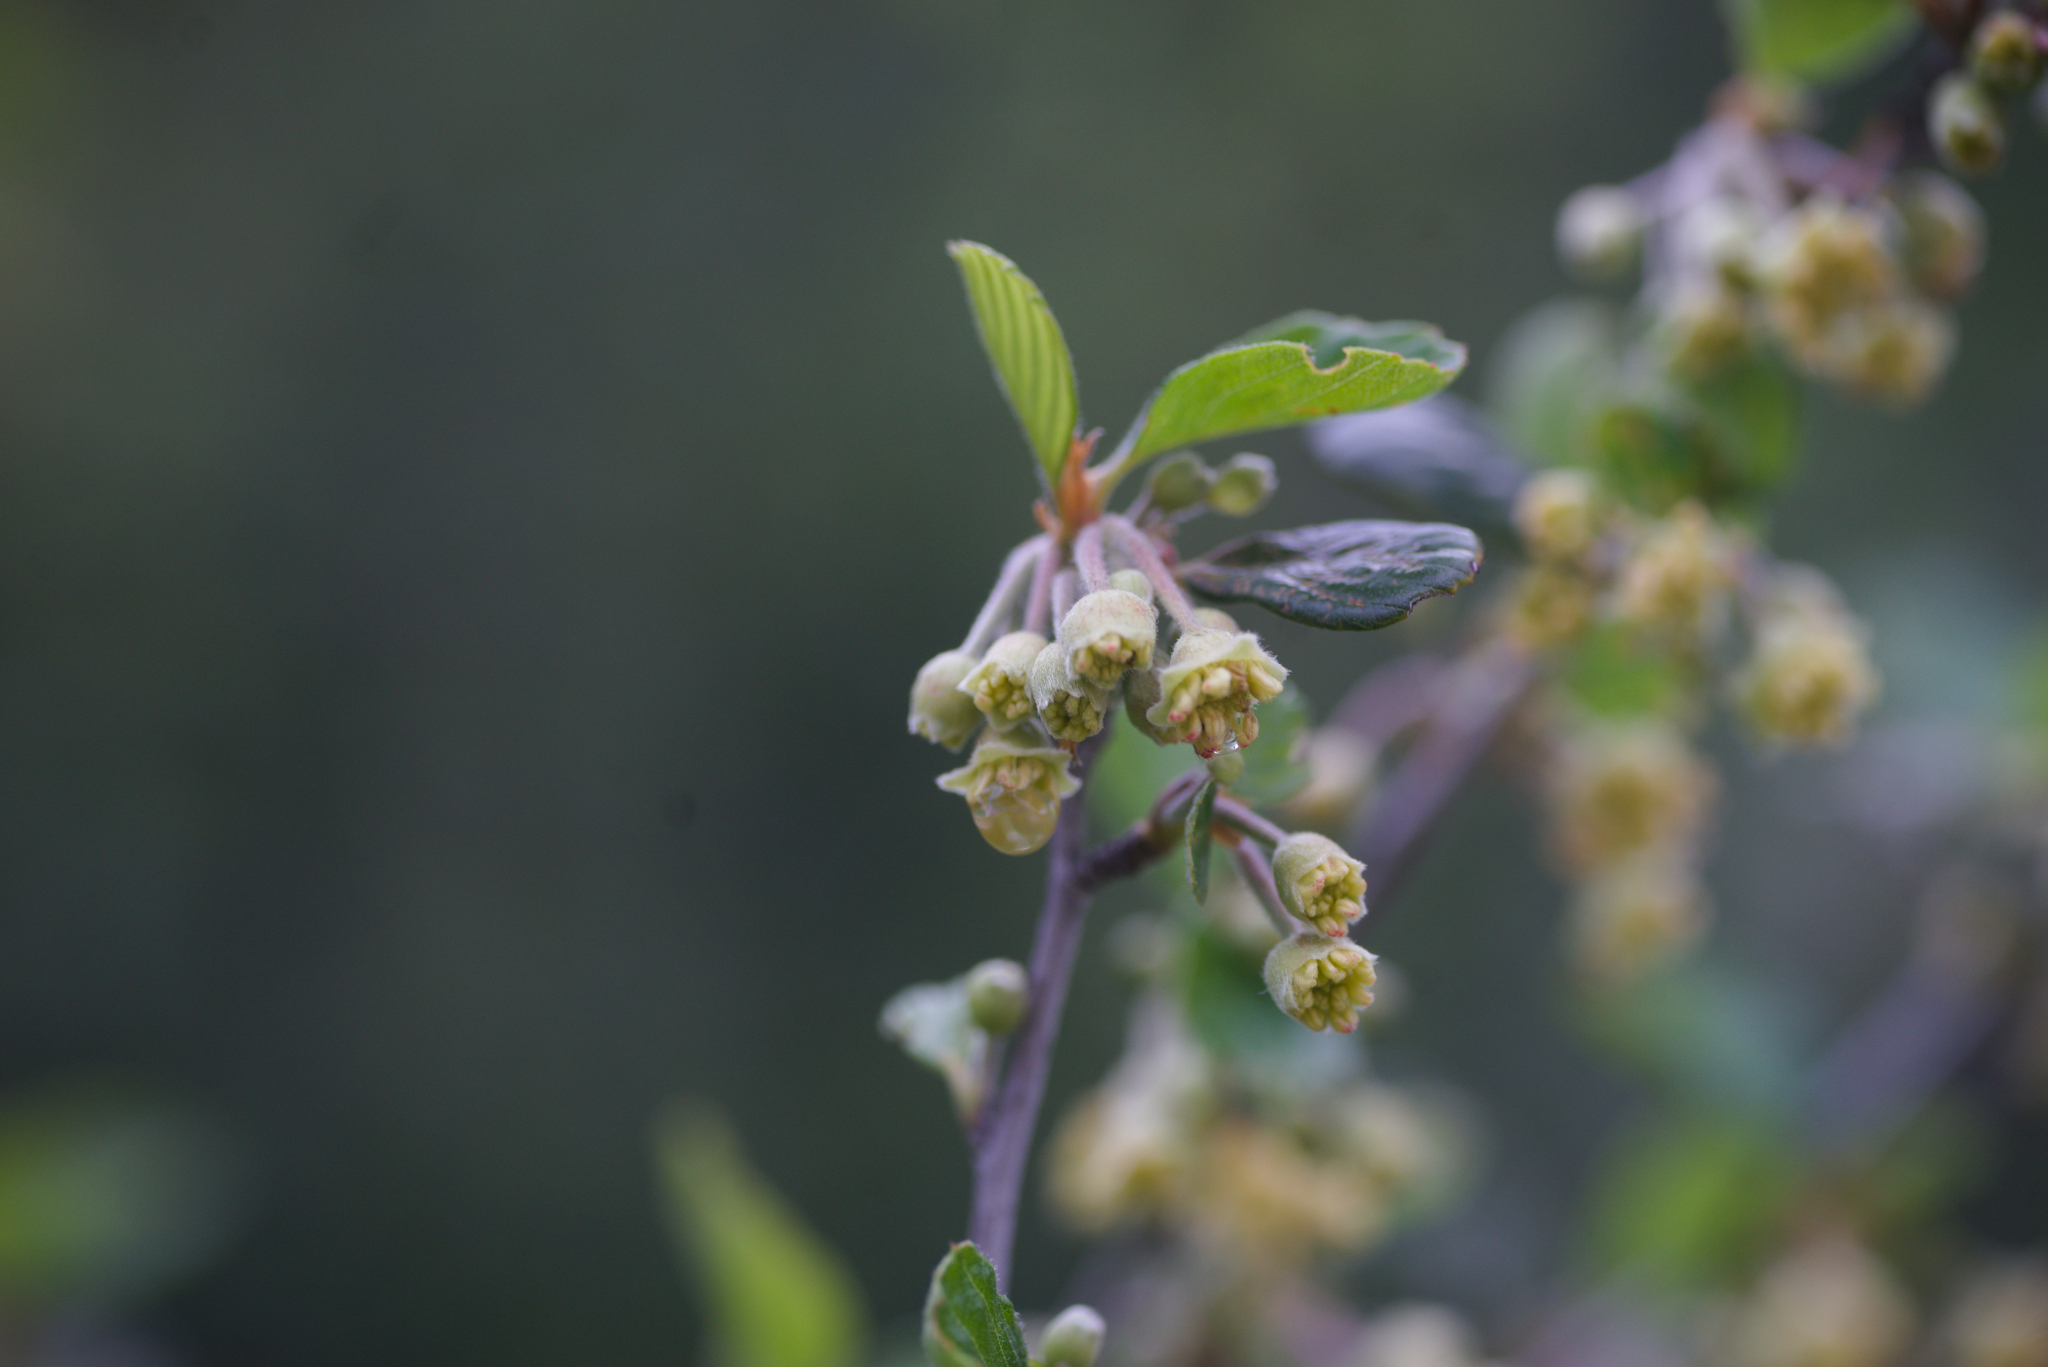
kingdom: Plantae
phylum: Tracheophyta
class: Magnoliopsida
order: Rosales
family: Rosaceae
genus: Cercocarpus
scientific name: Cercocarpus betuloides
